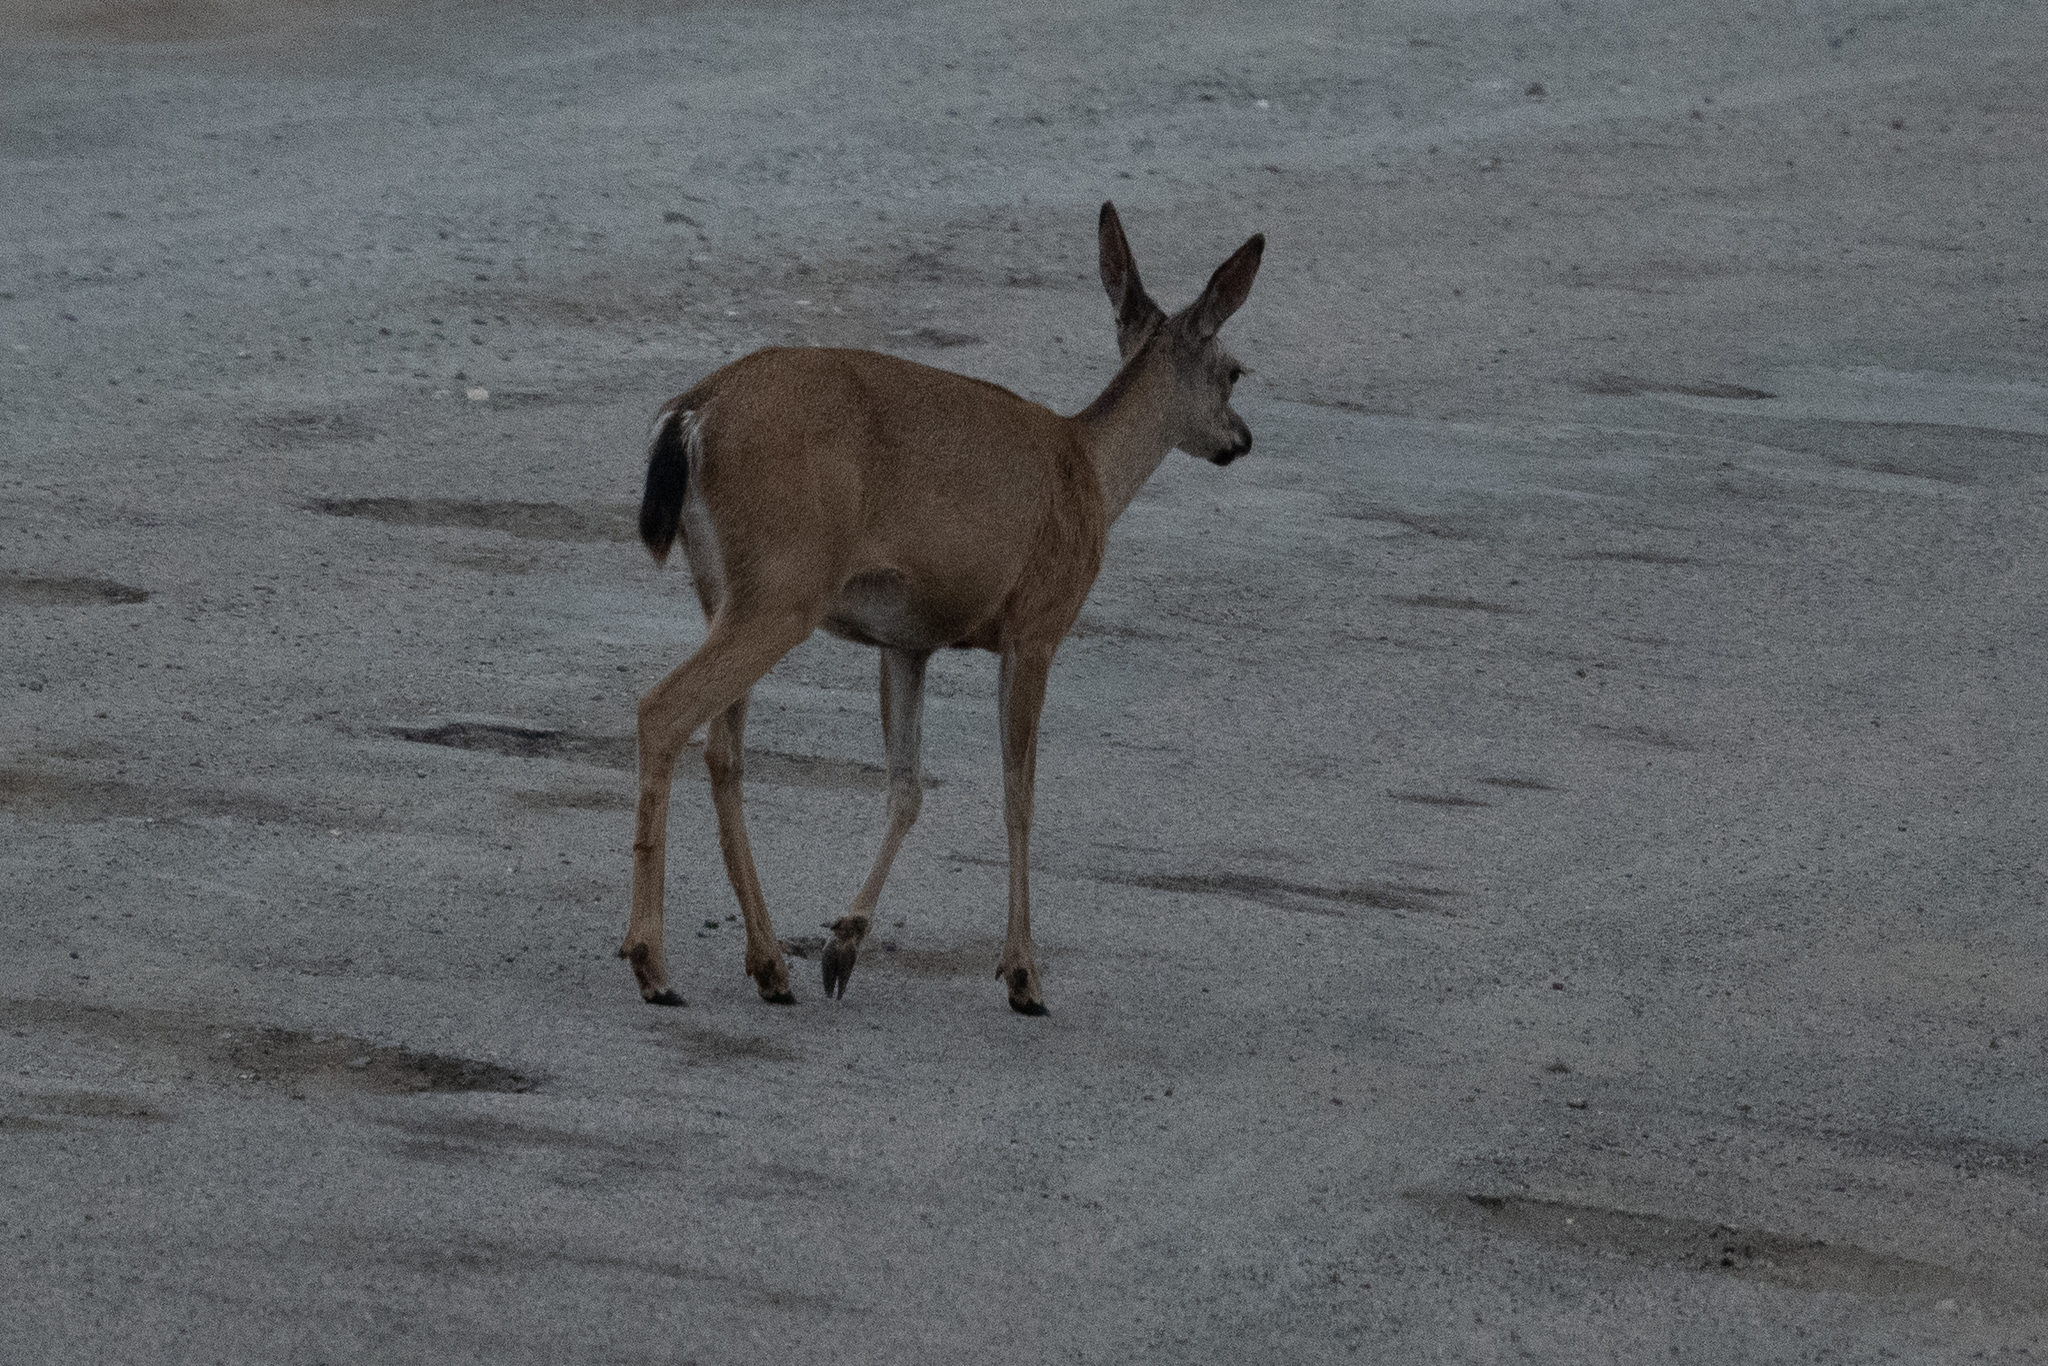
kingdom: Animalia
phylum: Chordata
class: Mammalia
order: Artiodactyla
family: Cervidae
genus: Odocoileus
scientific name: Odocoileus hemionus
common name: Mule deer
